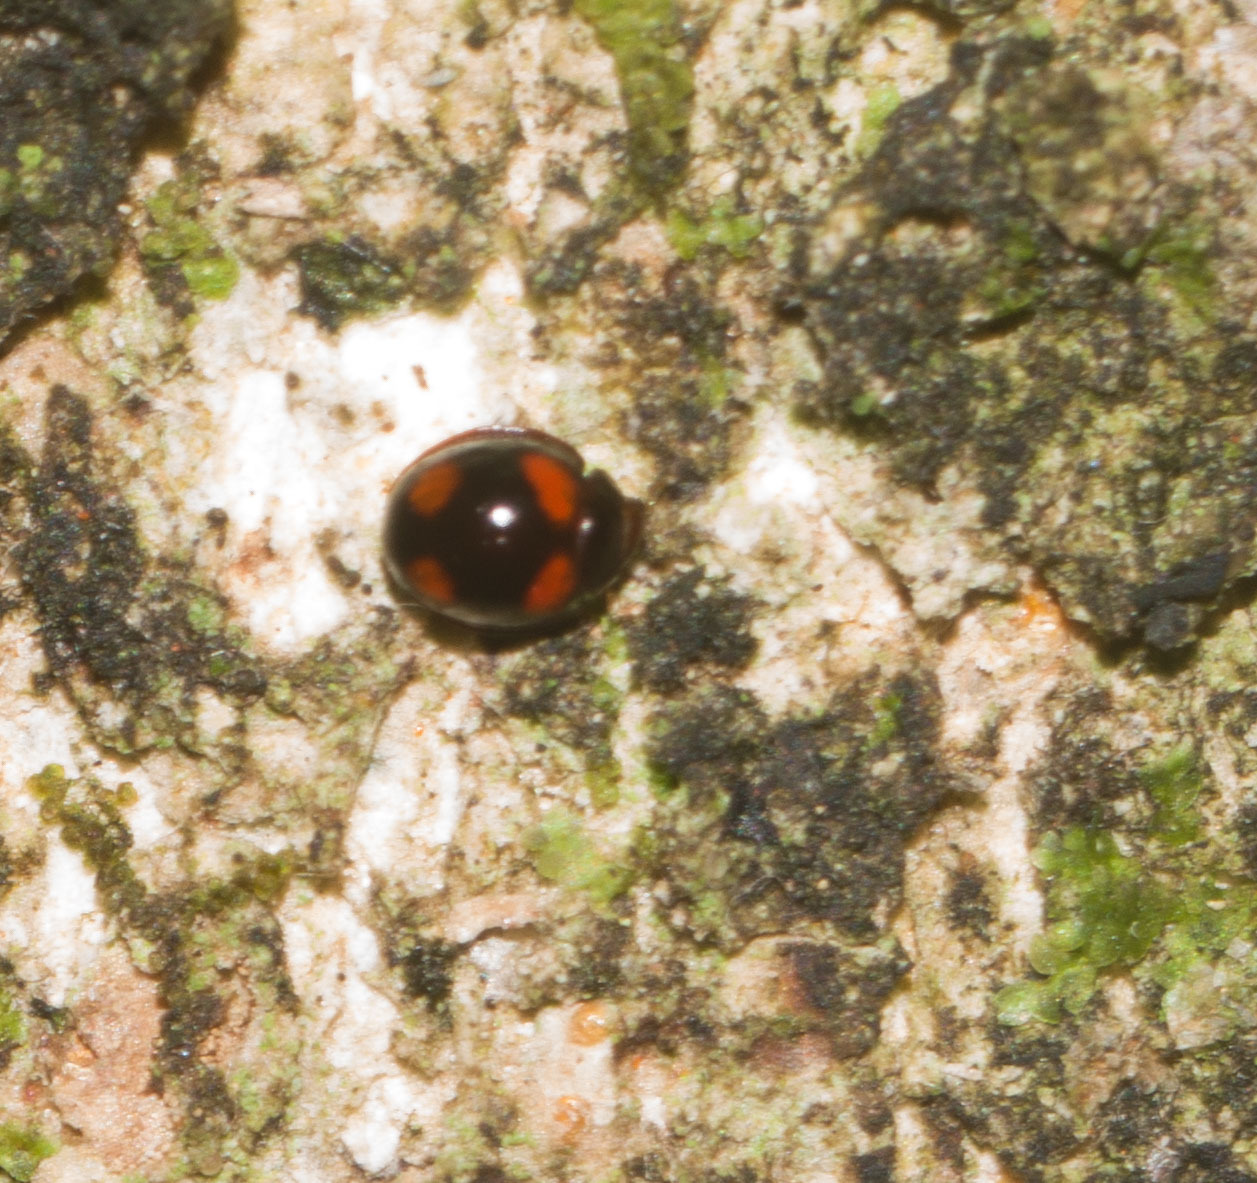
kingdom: Animalia
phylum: Arthropoda
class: Insecta
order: Coleoptera
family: Coccinellidae
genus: Sticholotis
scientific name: Sticholotis ruficeps
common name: Lady beetle
